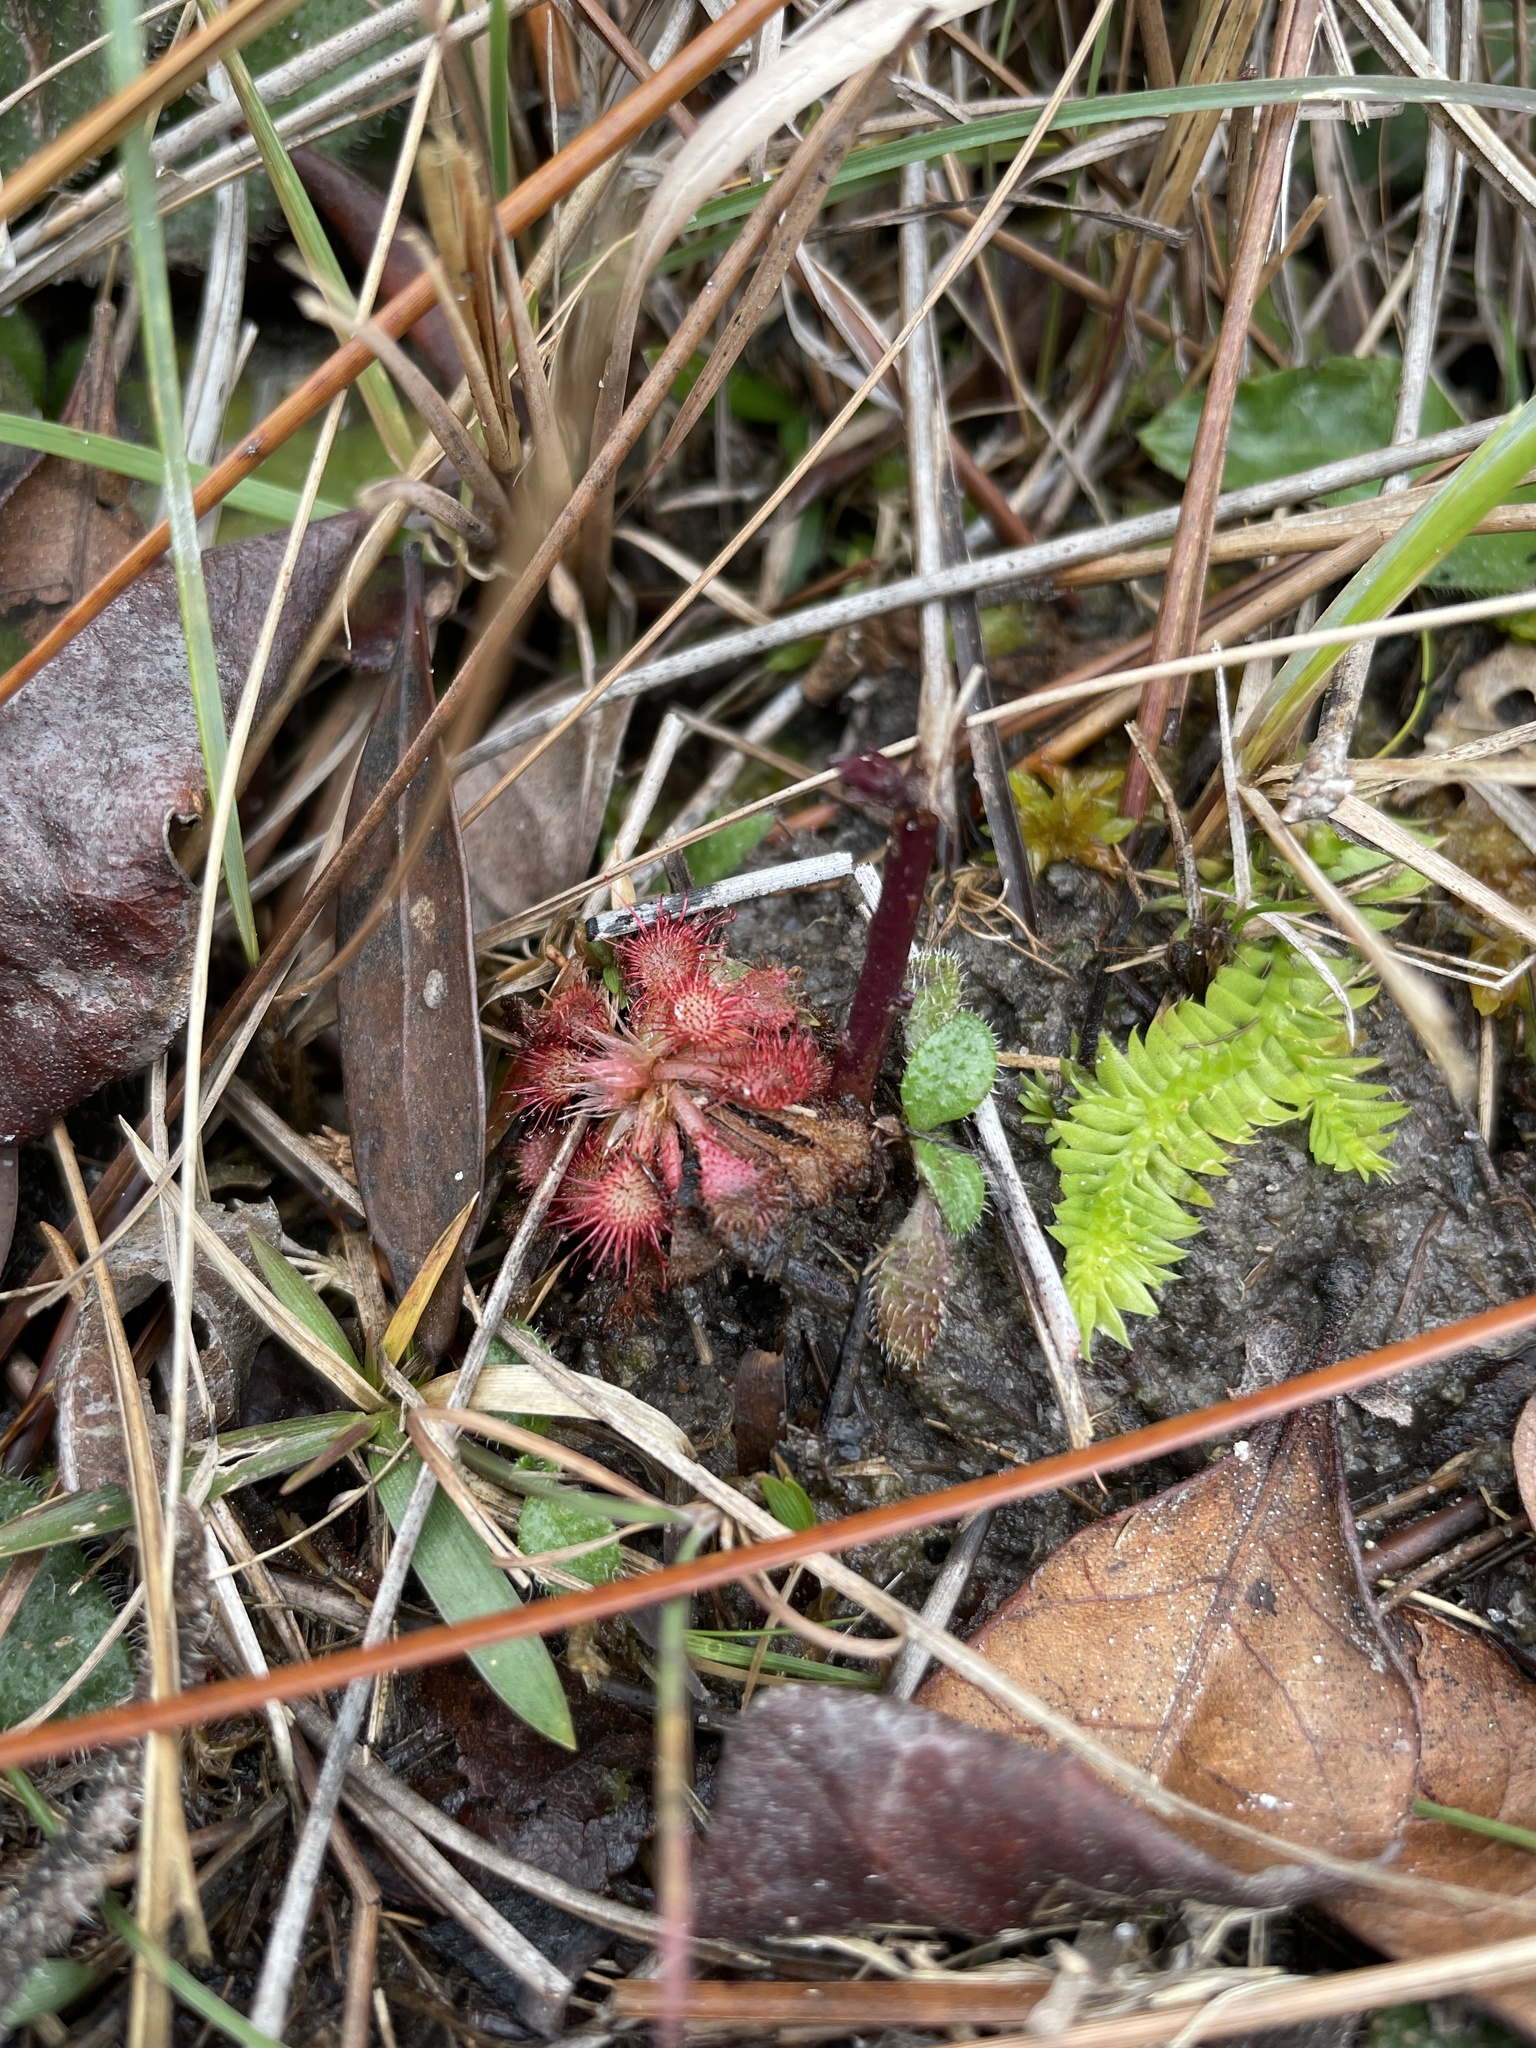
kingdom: Plantae
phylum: Tracheophyta
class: Magnoliopsida
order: Caryophyllales
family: Droseraceae
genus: Drosera
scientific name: Drosera capillaris
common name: Pink sundew
